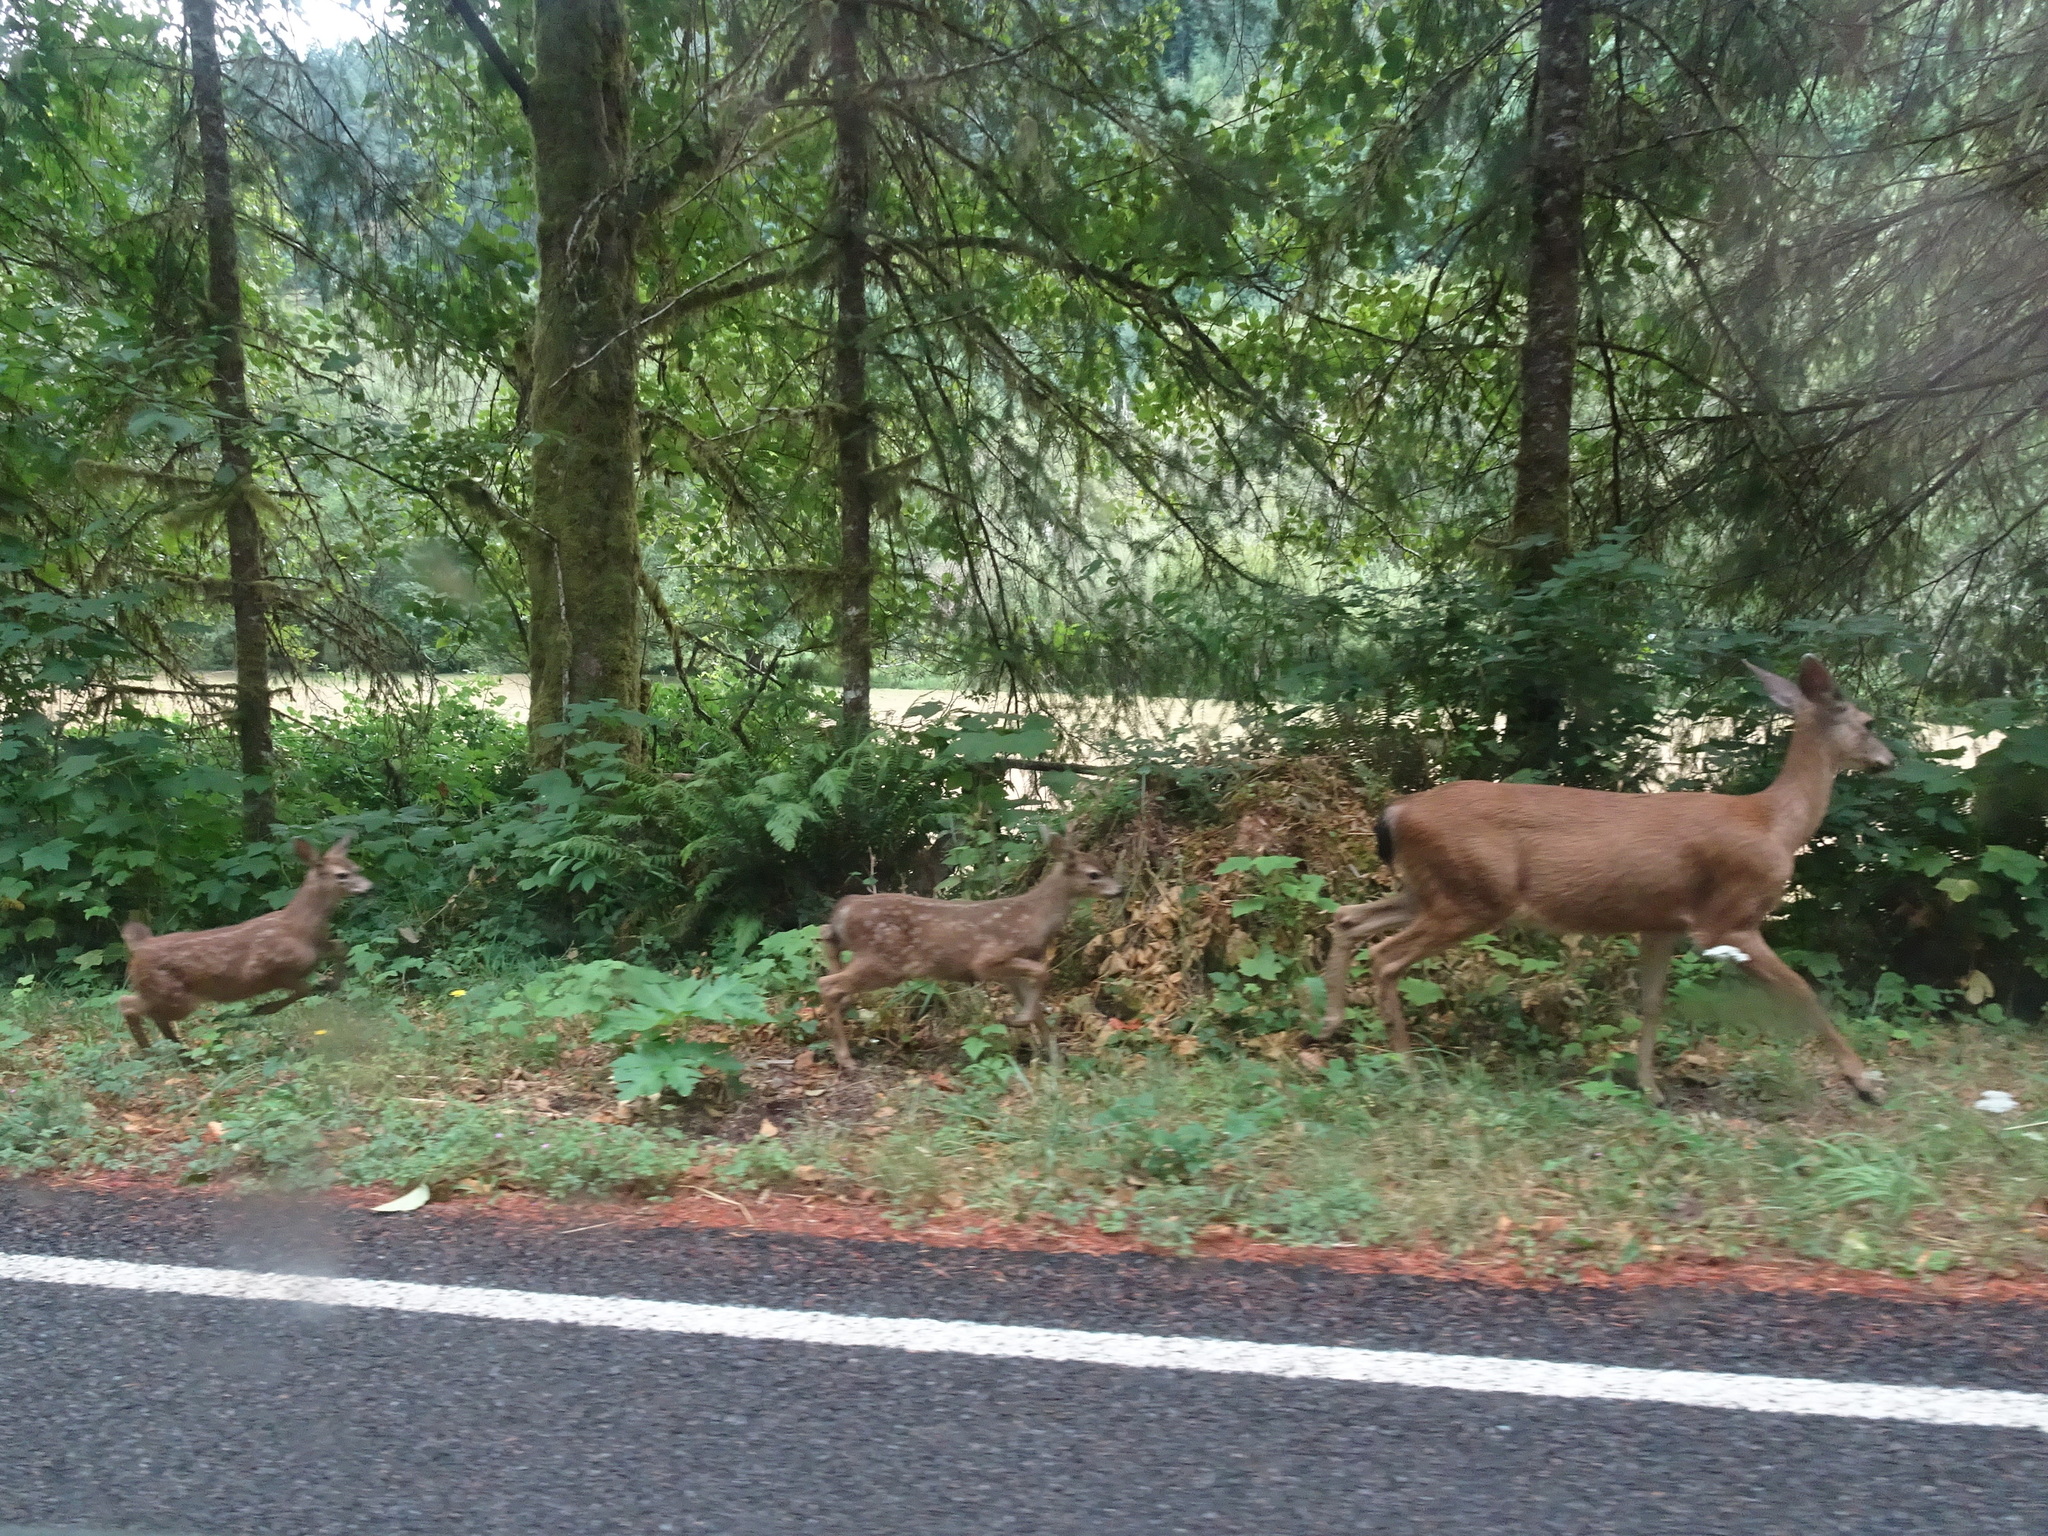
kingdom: Animalia
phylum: Chordata
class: Mammalia
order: Artiodactyla
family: Cervidae
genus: Odocoileus
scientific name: Odocoileus hemionus
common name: Mule deer
